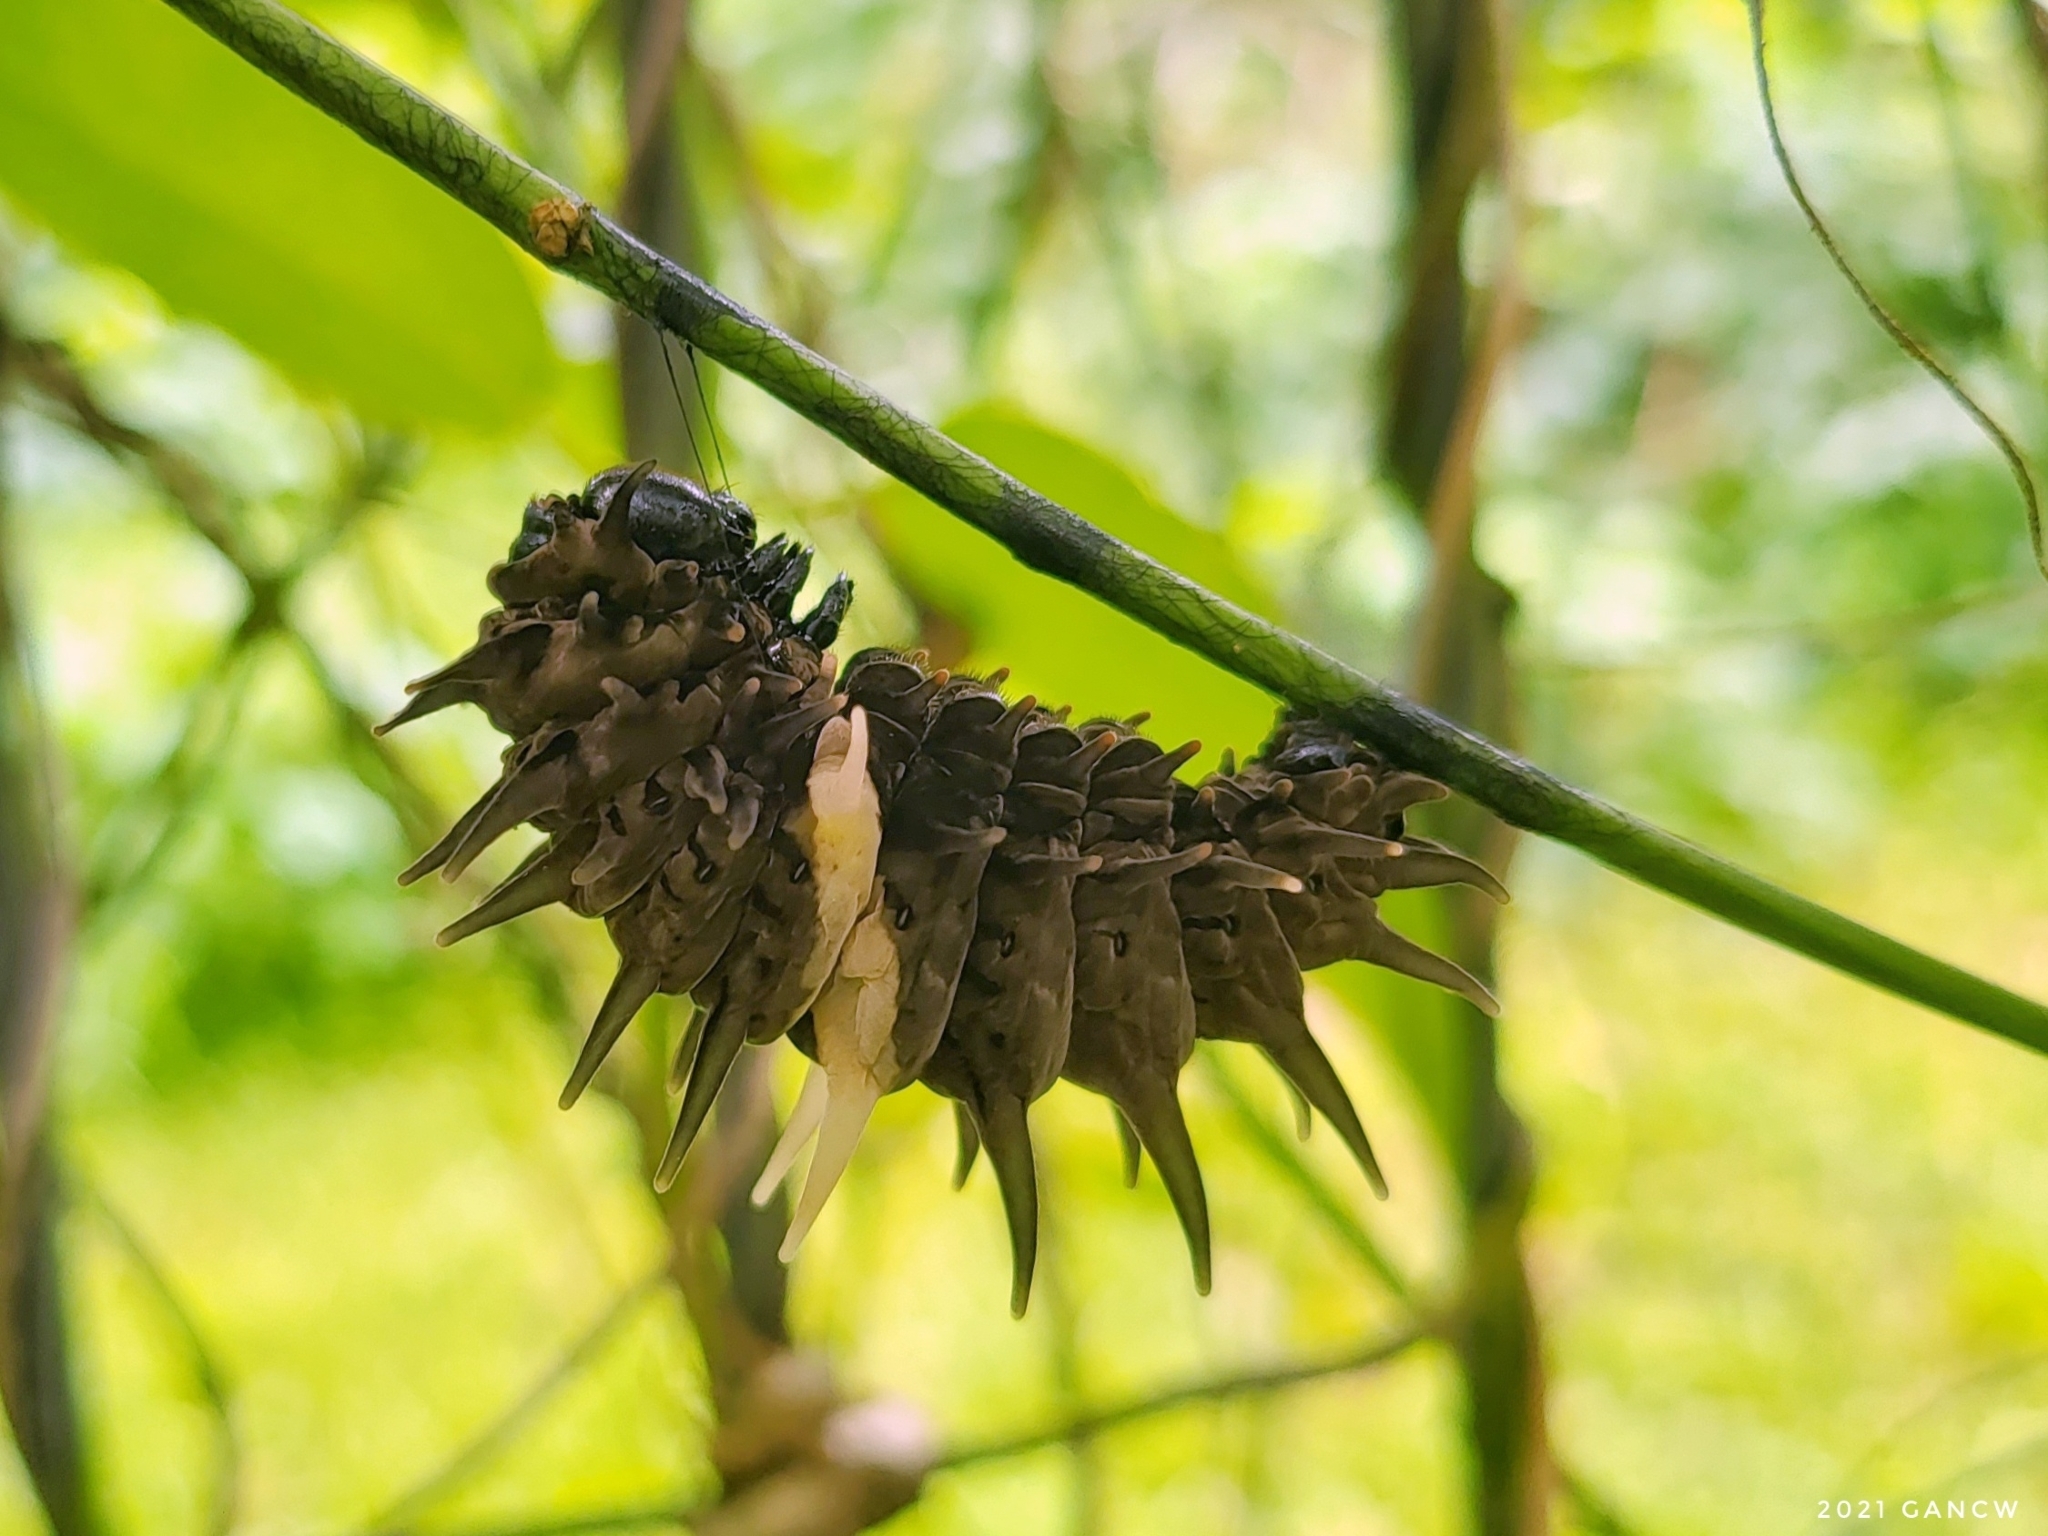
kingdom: Animalia
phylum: Arthropoda
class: Insecta
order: Lepidoptera
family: Papilionidae
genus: Troides
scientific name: Troides helena
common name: Common birdwing
